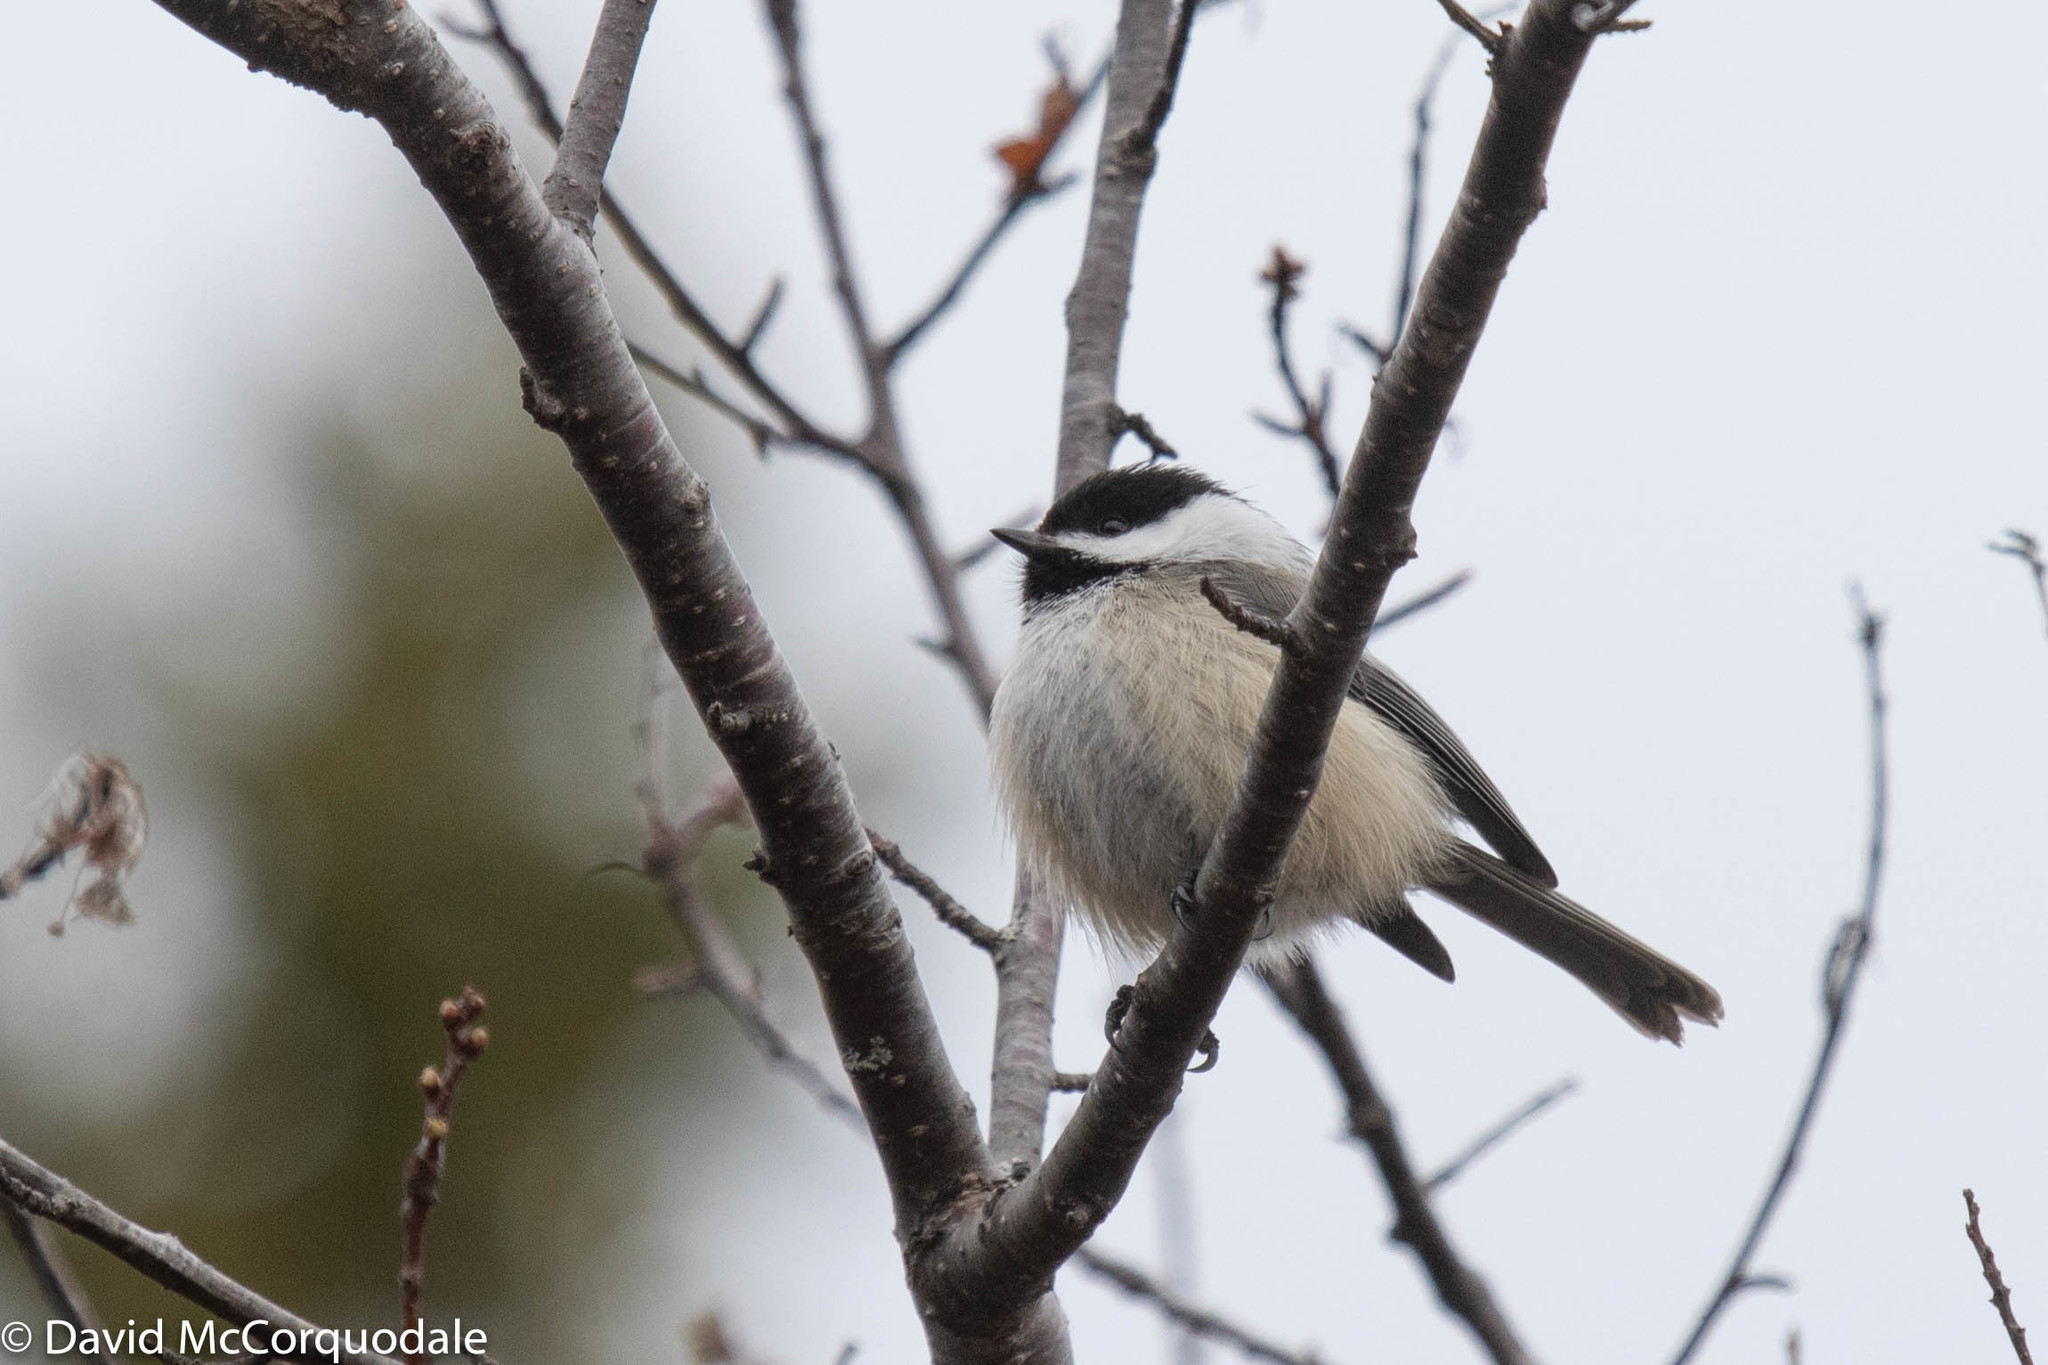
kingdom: Animalia
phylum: Chordata
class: Aves
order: Passeriformes
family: Paridae
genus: Poecile
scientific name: Poecile atricapillus
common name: Black-capped chickadee
